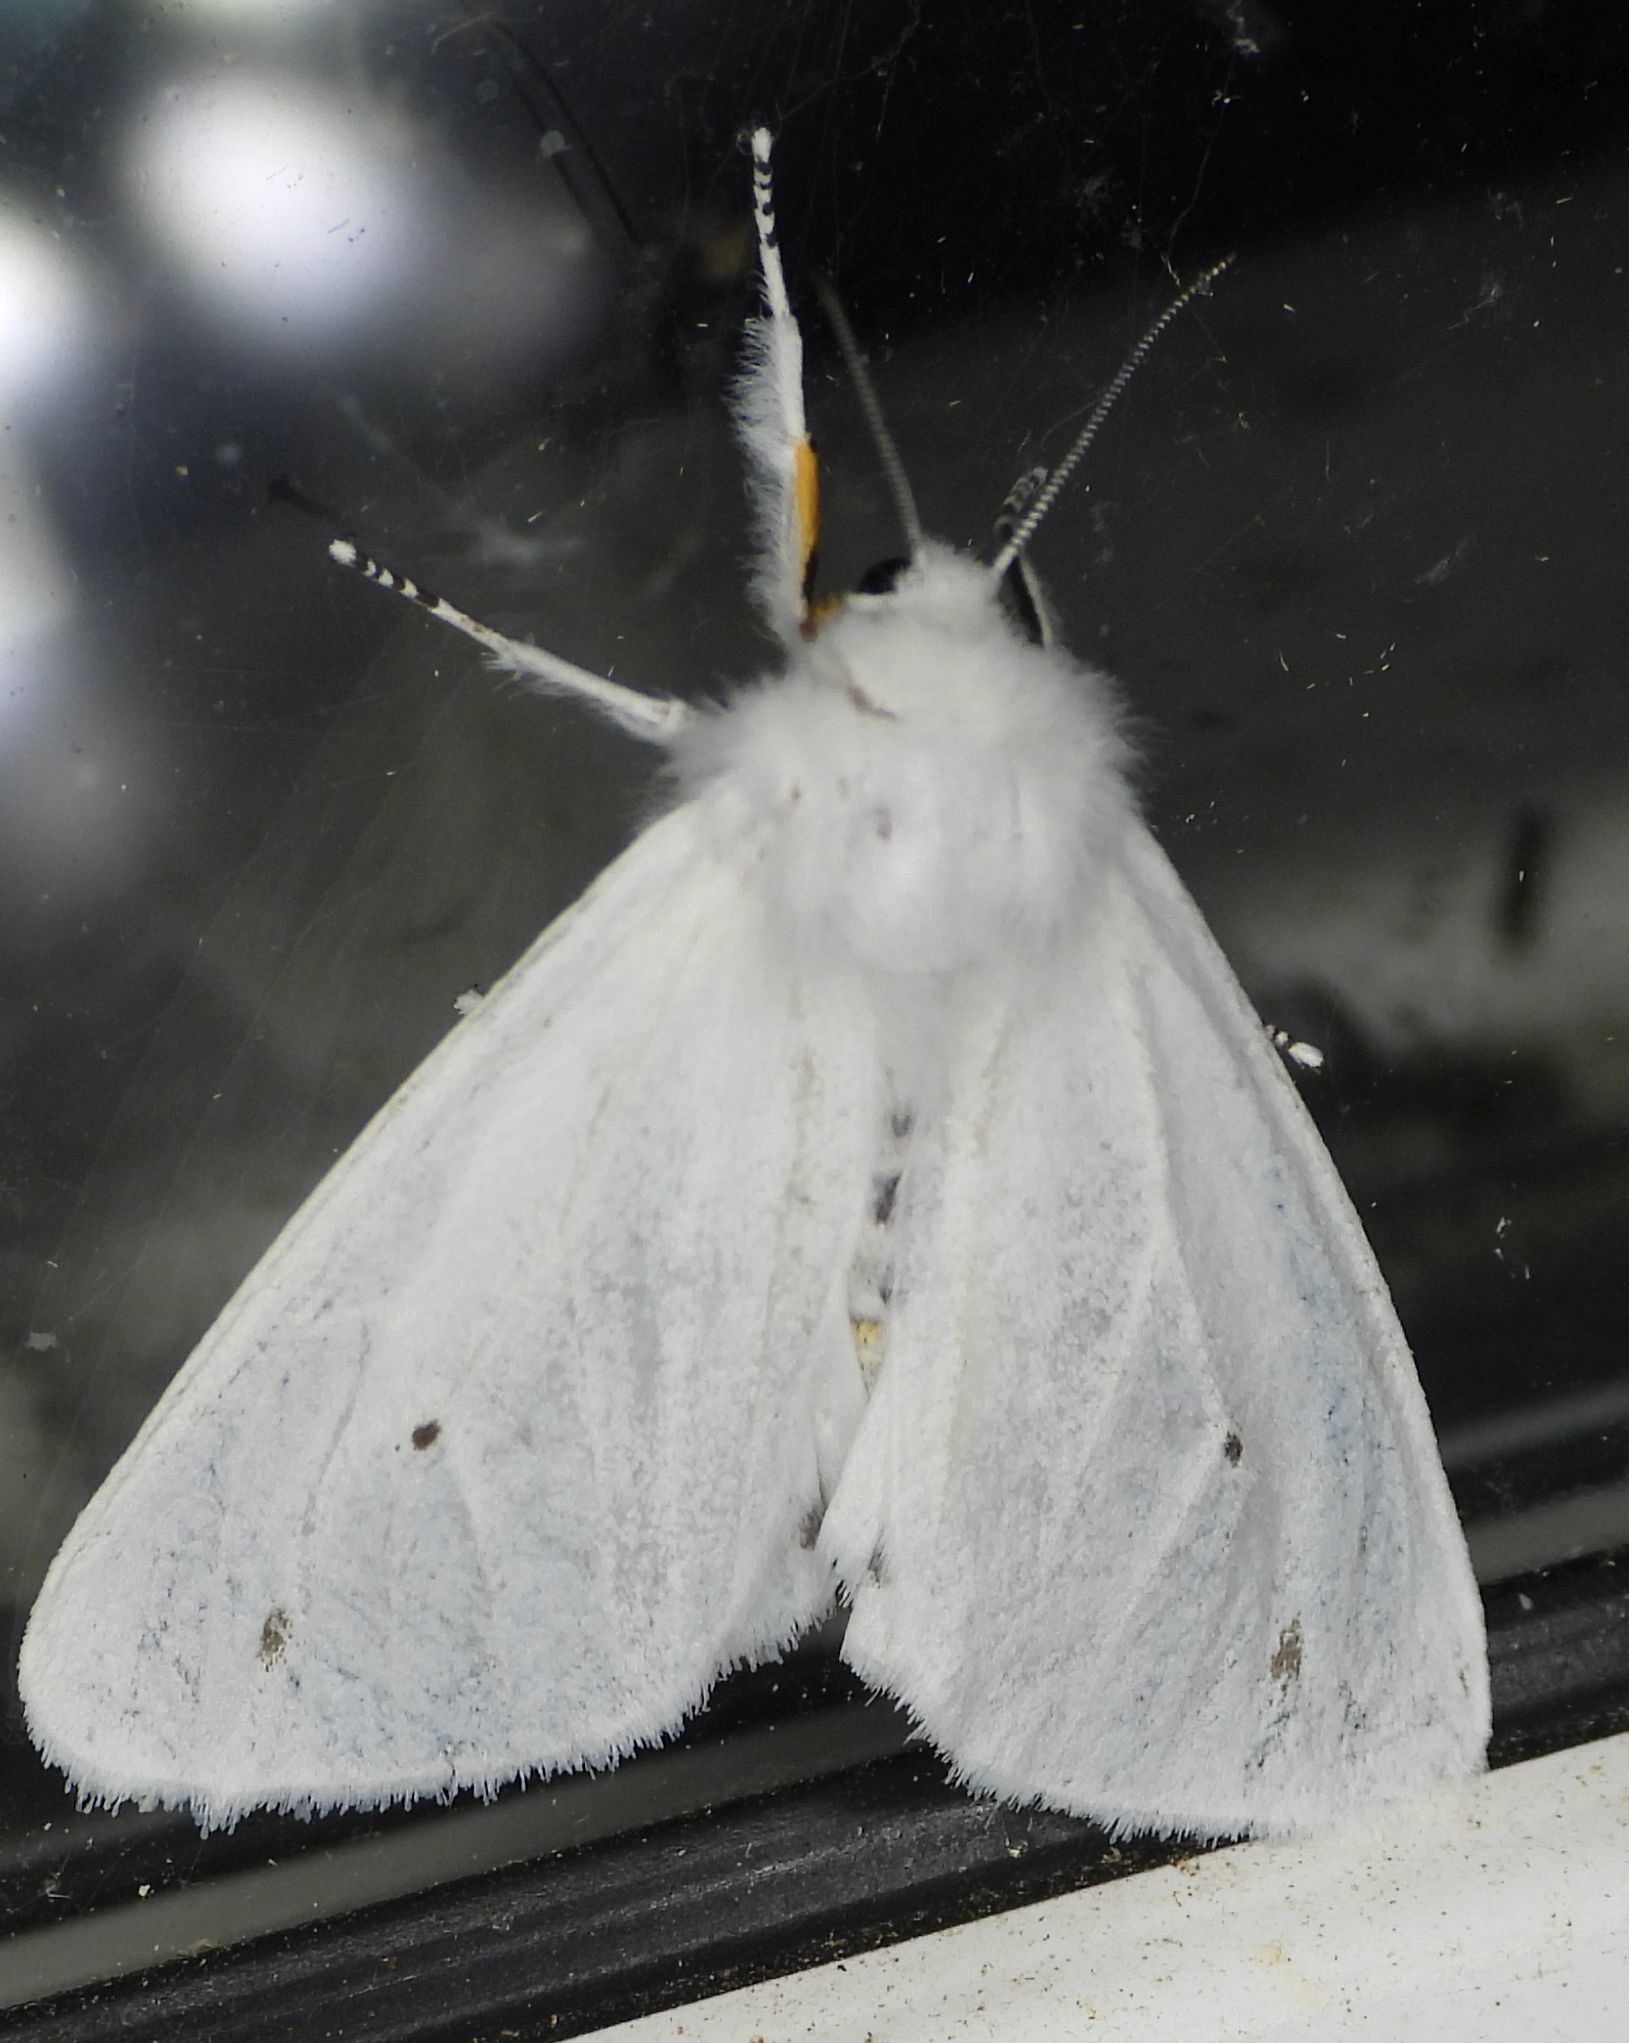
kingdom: Animalia
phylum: Arthropoda
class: Insecta
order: Lepidoptera
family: Erebidae
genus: Spilosoma
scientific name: Spilosoma virginica
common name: Virginia tiger moth
